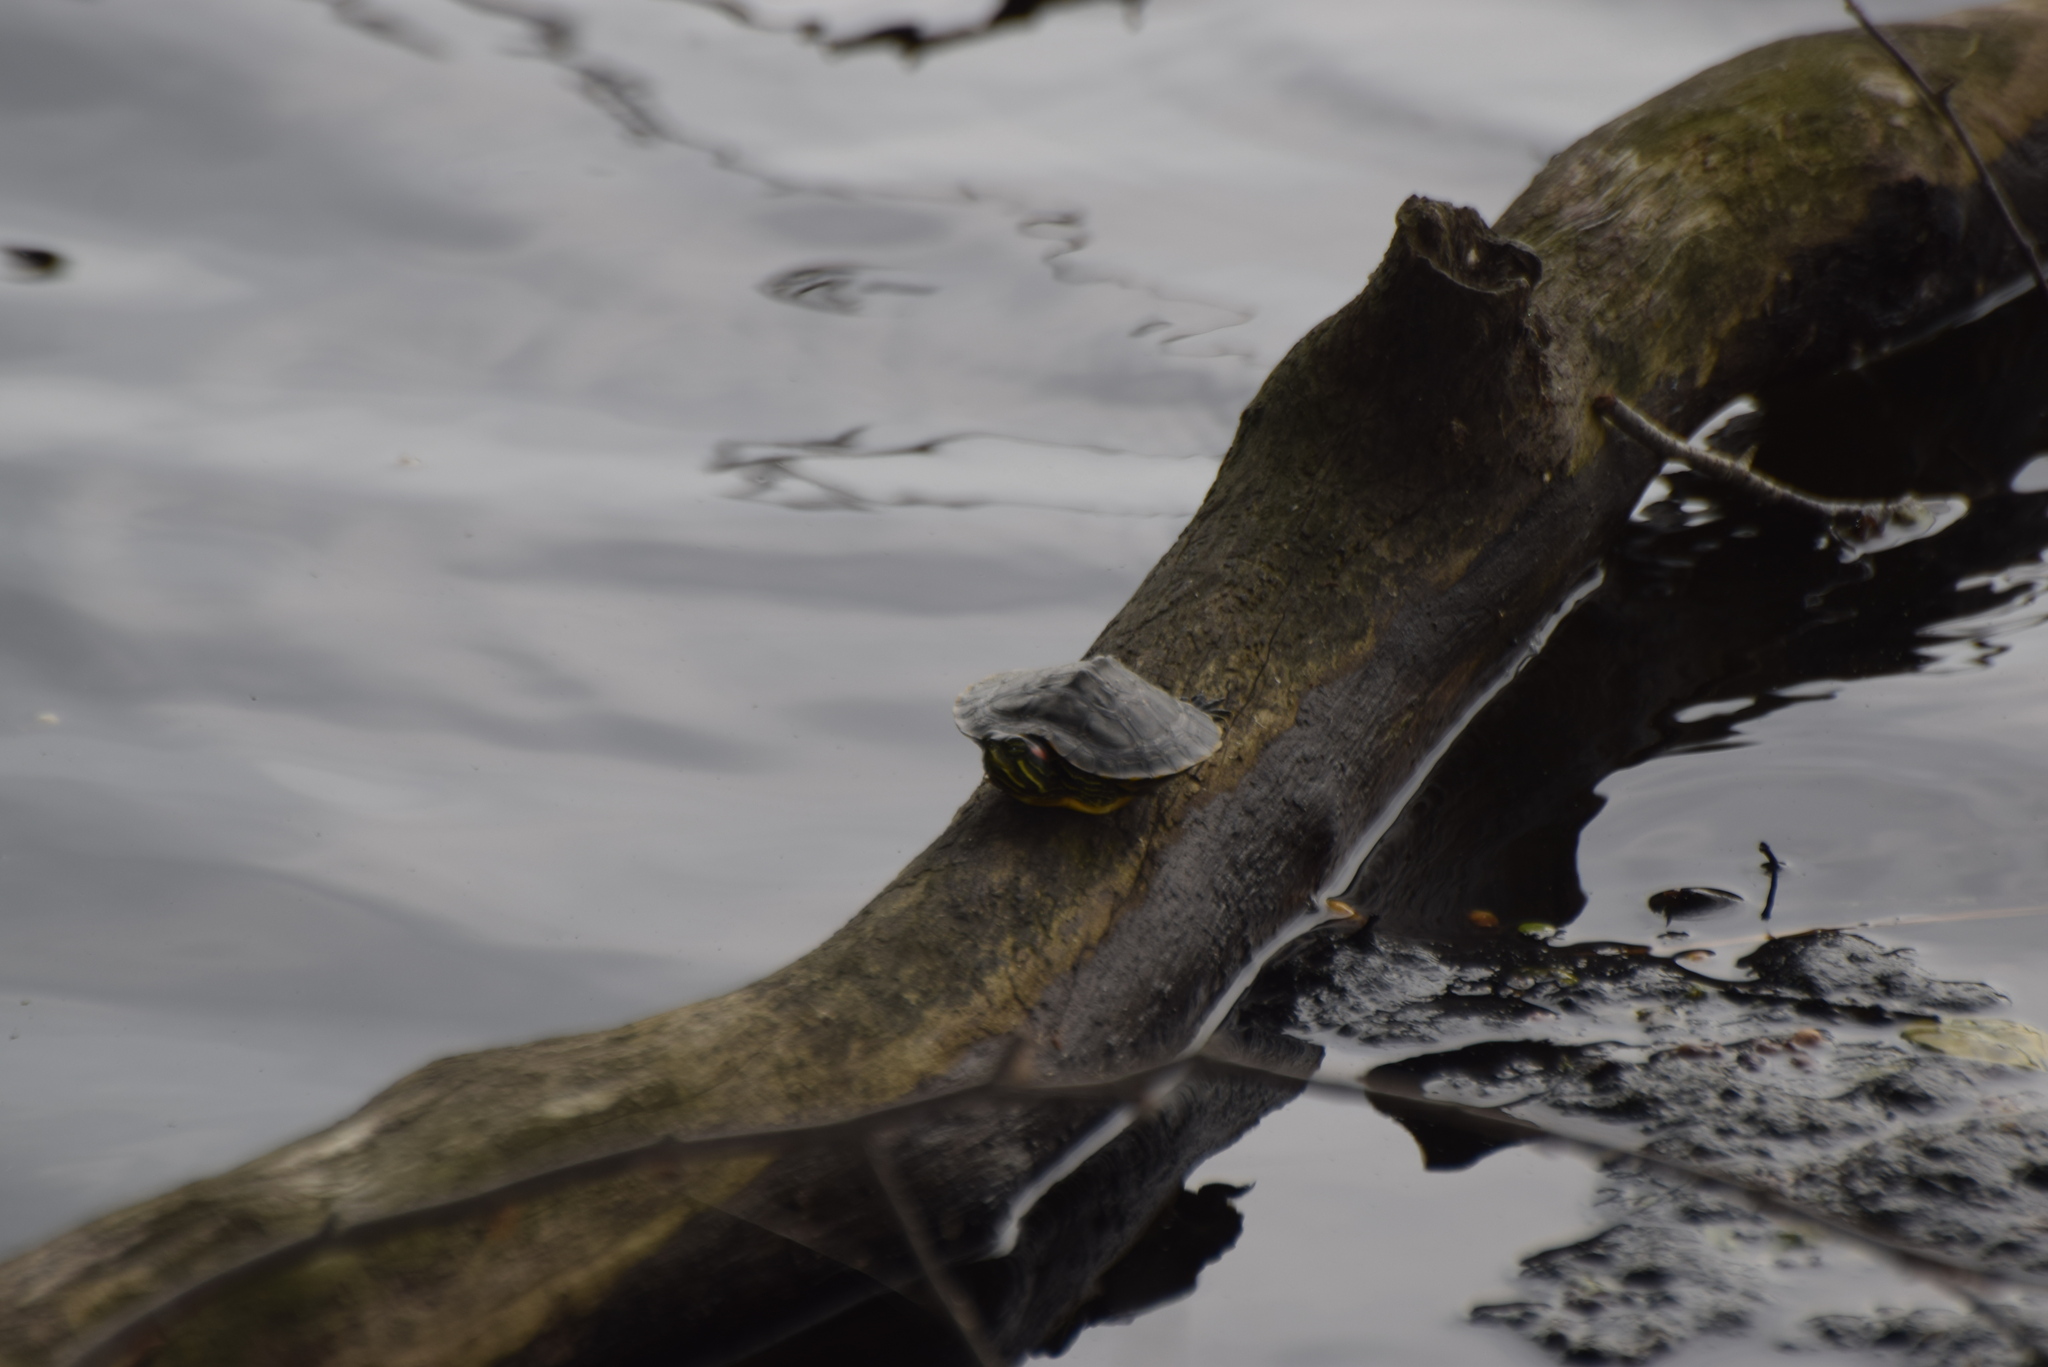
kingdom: Animalia
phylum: Chordata
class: Testudines
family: Emydidae
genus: Trachemys
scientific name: Trachemys scripta
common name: Slider
